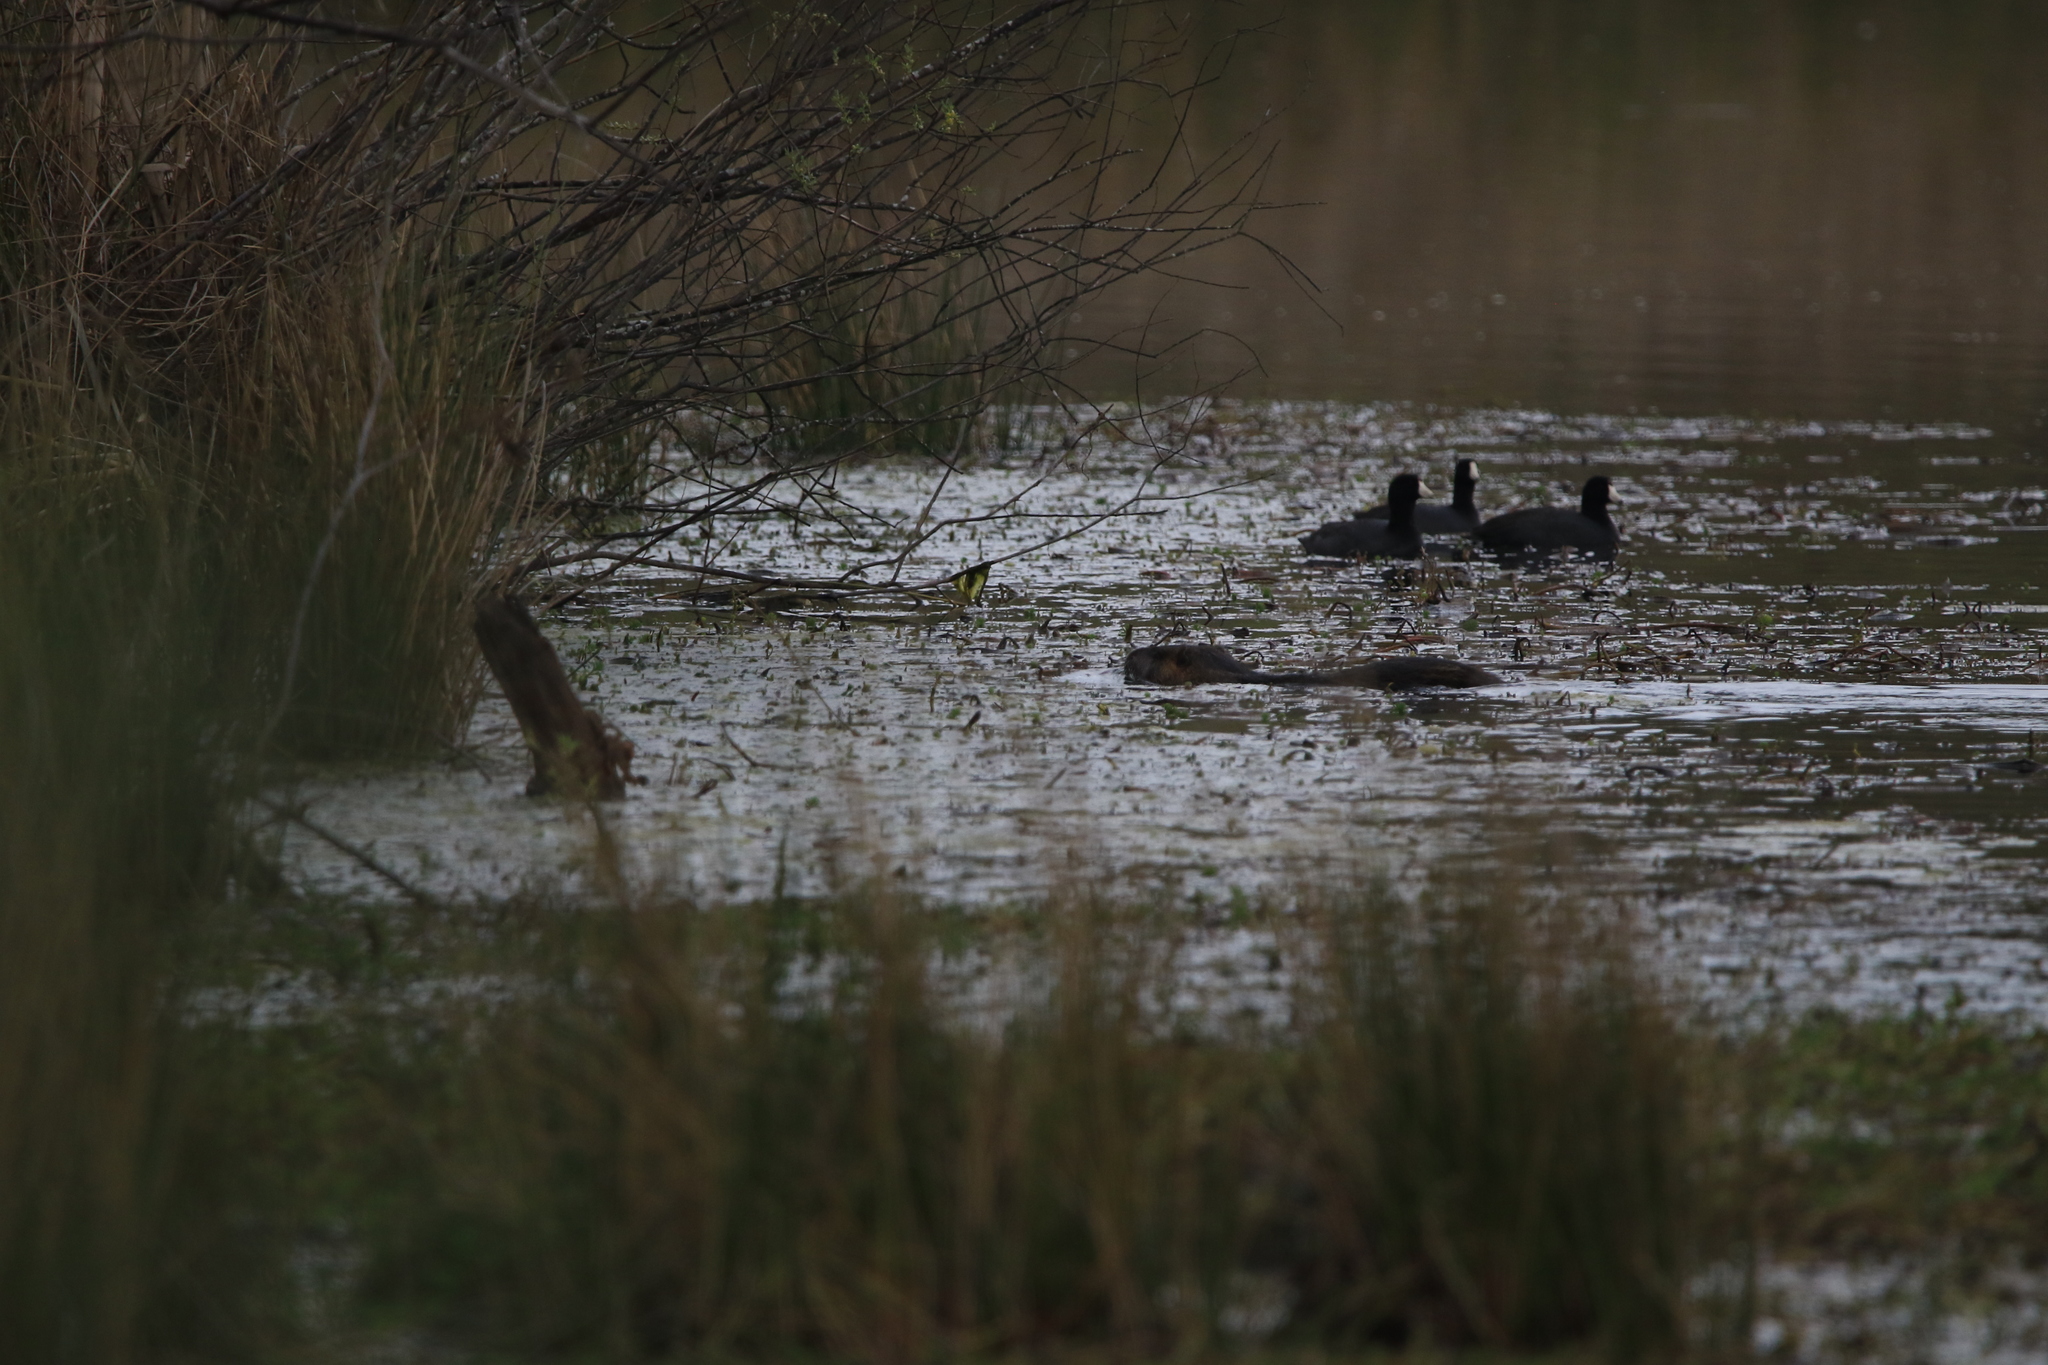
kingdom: Animalia
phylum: Chordata
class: Mammalia
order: Rodentia
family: Myocastoridae
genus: Myocastor
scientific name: Myocastor coypus
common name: Coypu
